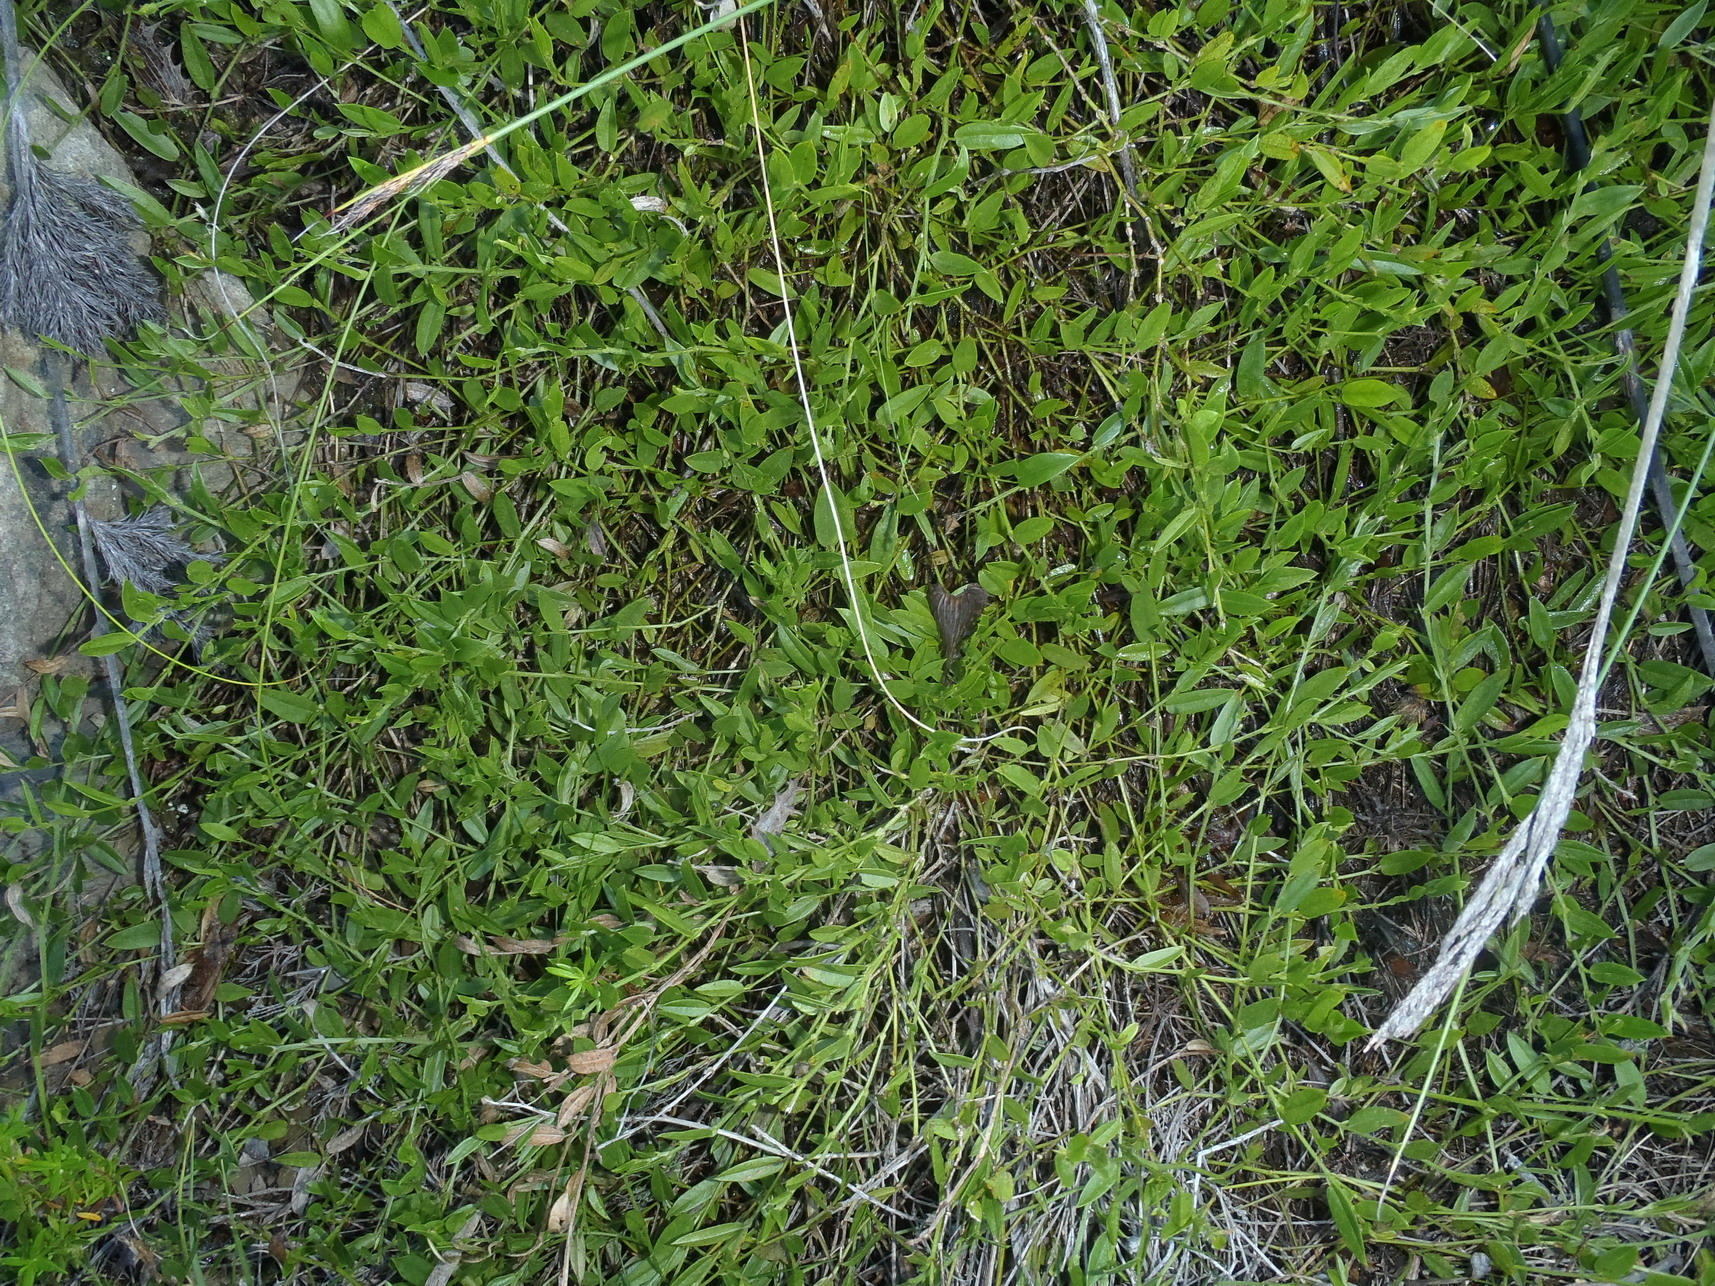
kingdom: Plantae
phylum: Tracheophyta
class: Magnoliopsida
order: Fabales
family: Fabaceae
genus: Psoralea
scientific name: Psoralea plauta
